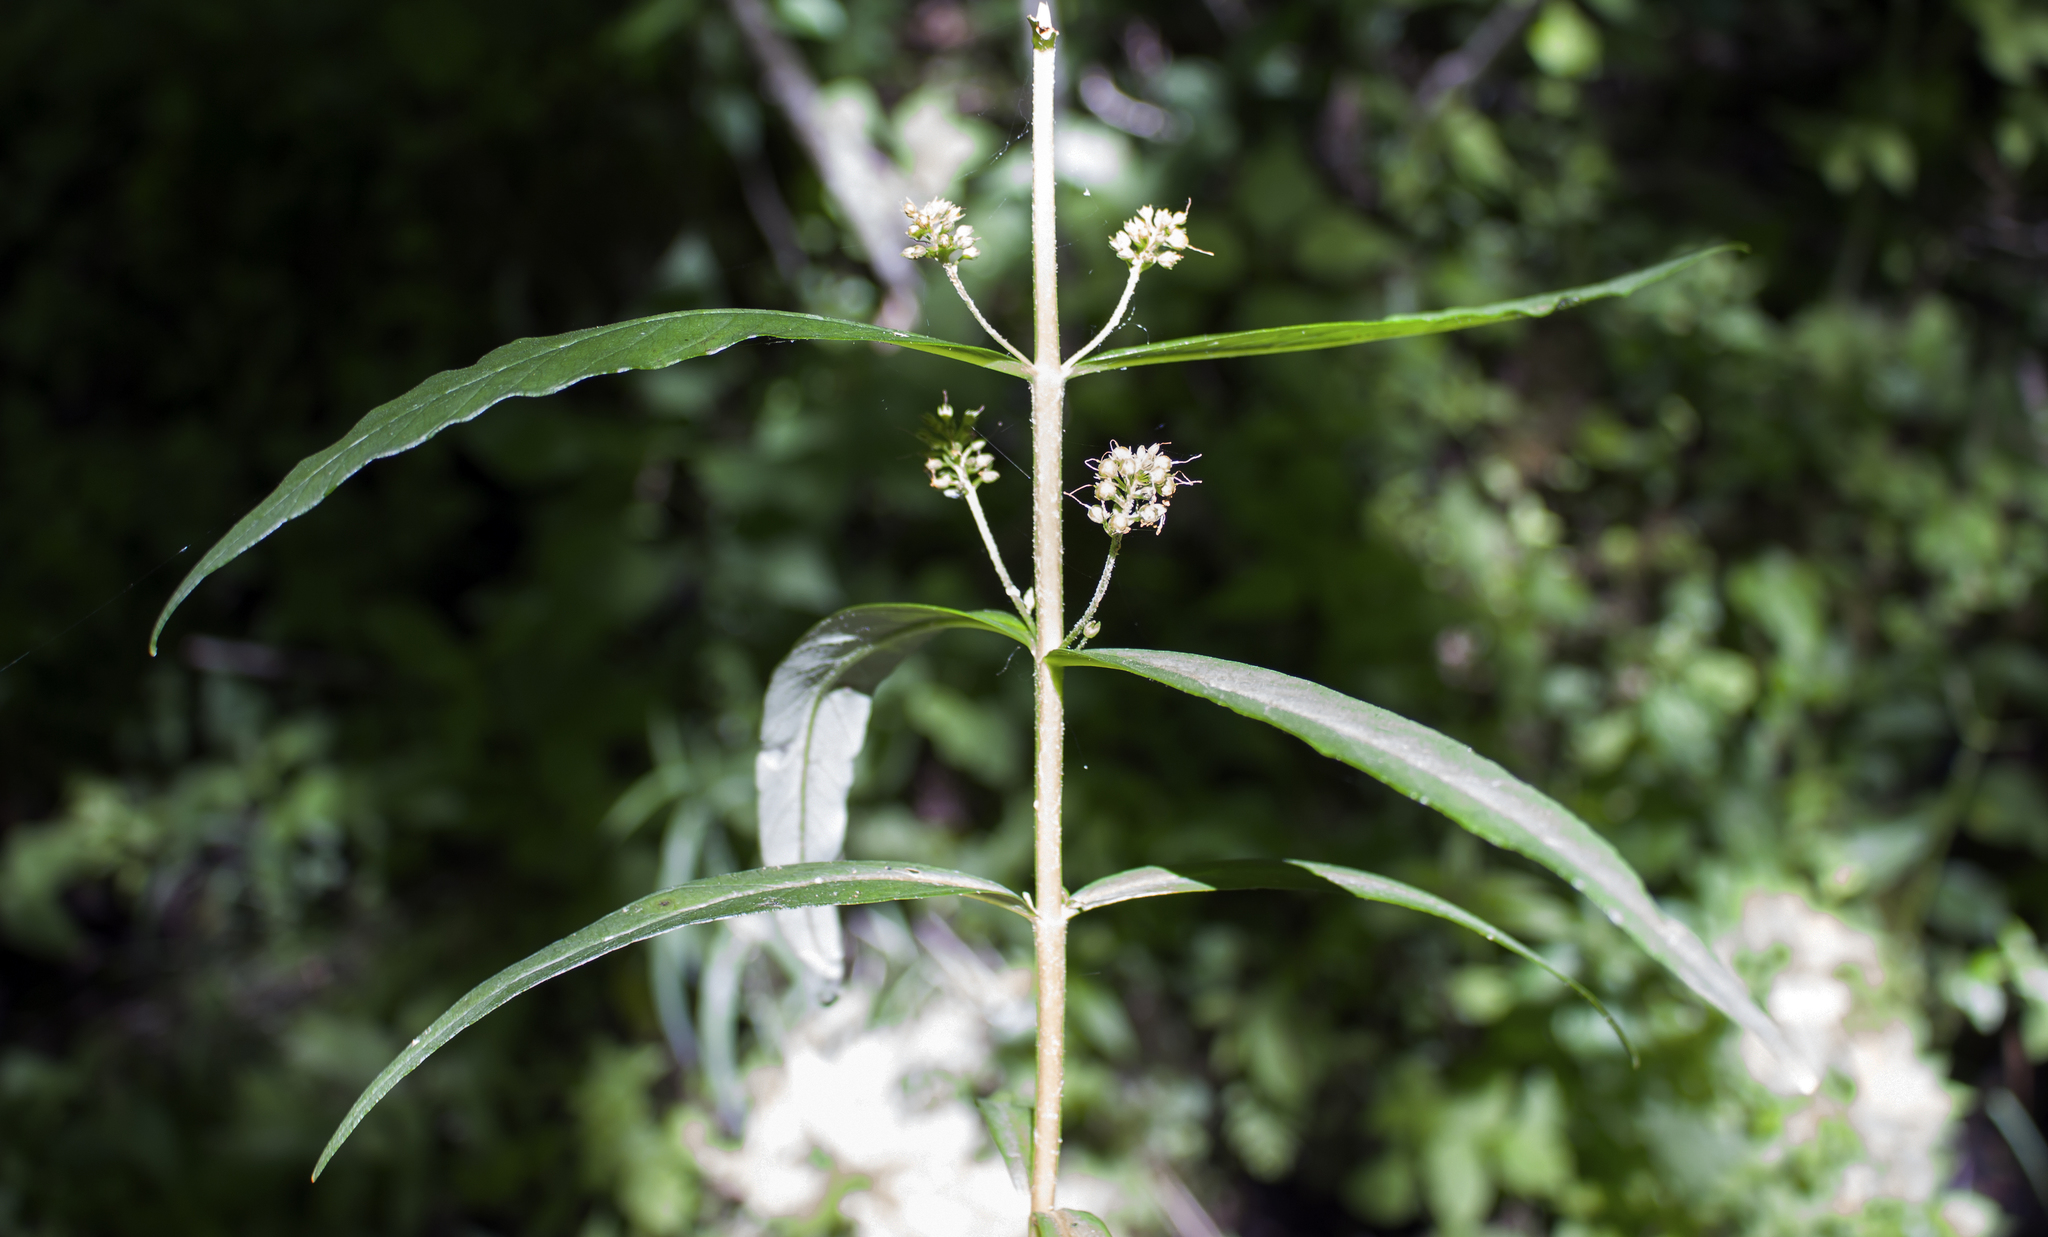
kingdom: Plantae
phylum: Tracheophyta
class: Magnoliopsida
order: Ericales
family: Primulaceae
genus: Lysimachia
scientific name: Lysimachia thyrsiflora
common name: Tufted loosestrife
